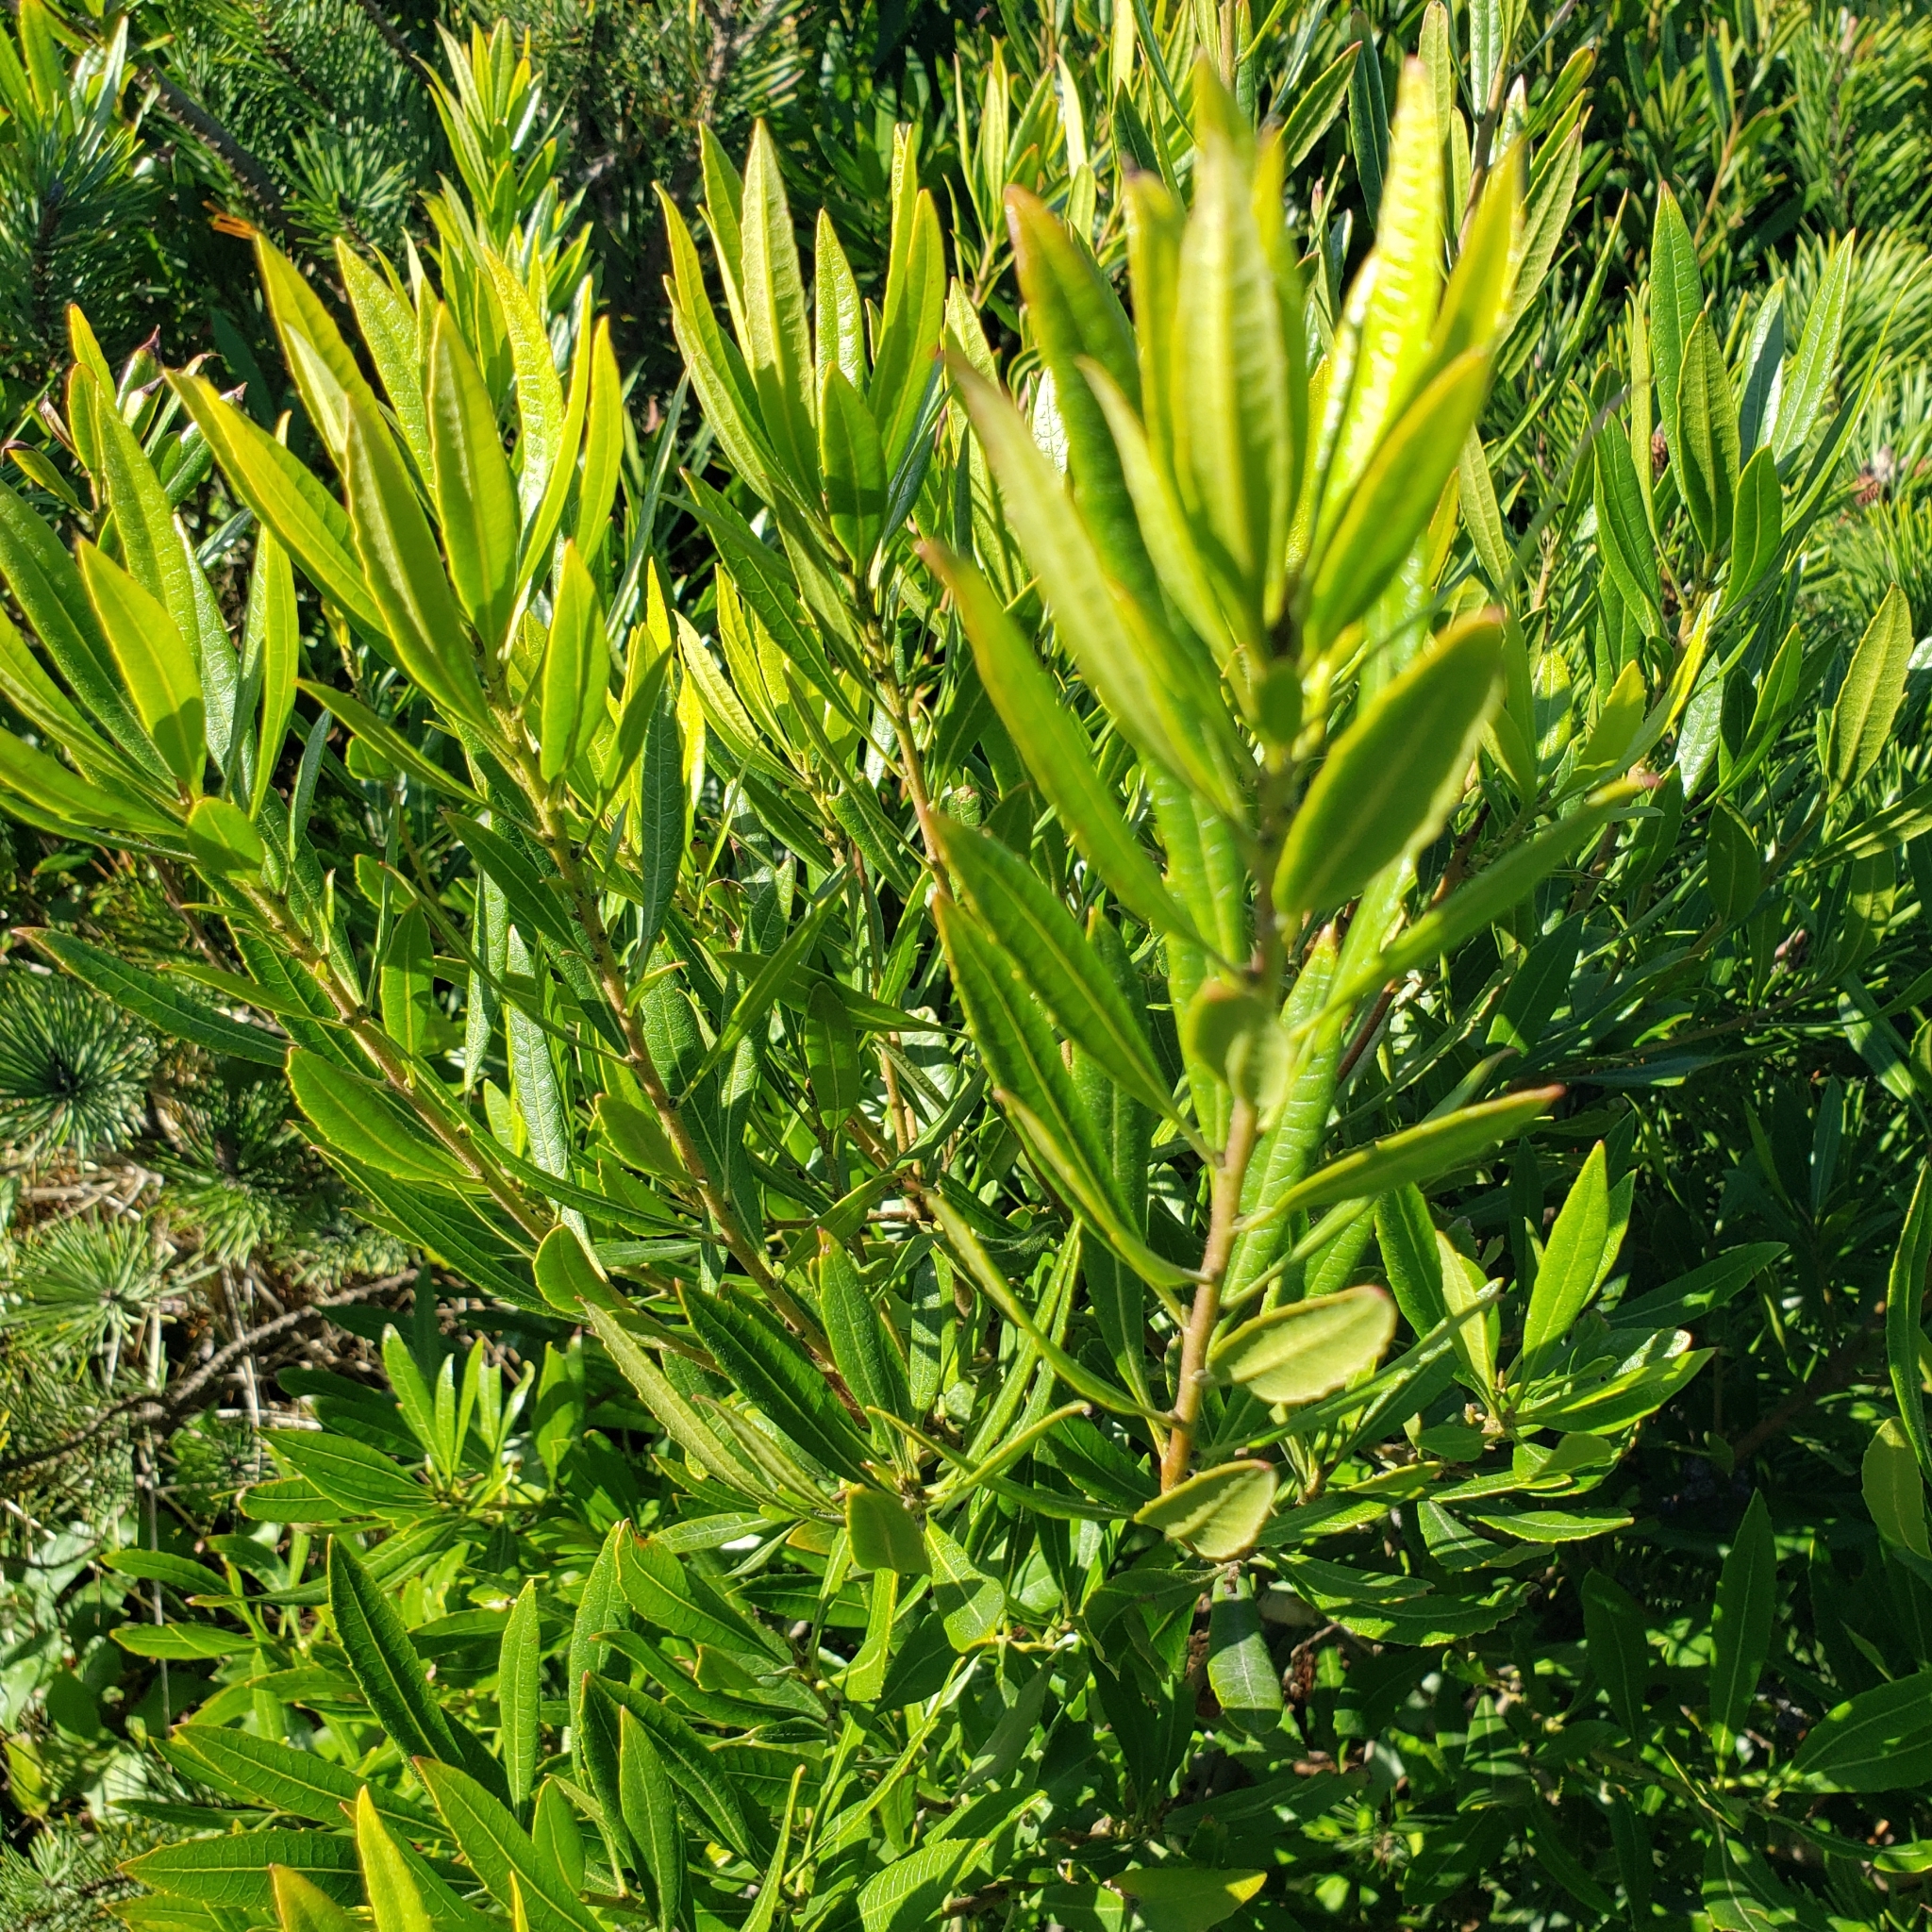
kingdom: Plantae
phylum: Tracheophyta
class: Magnoliopsida
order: Fagales
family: Myricaceae
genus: Morella
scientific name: Morella californica
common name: California wax-myrtle
